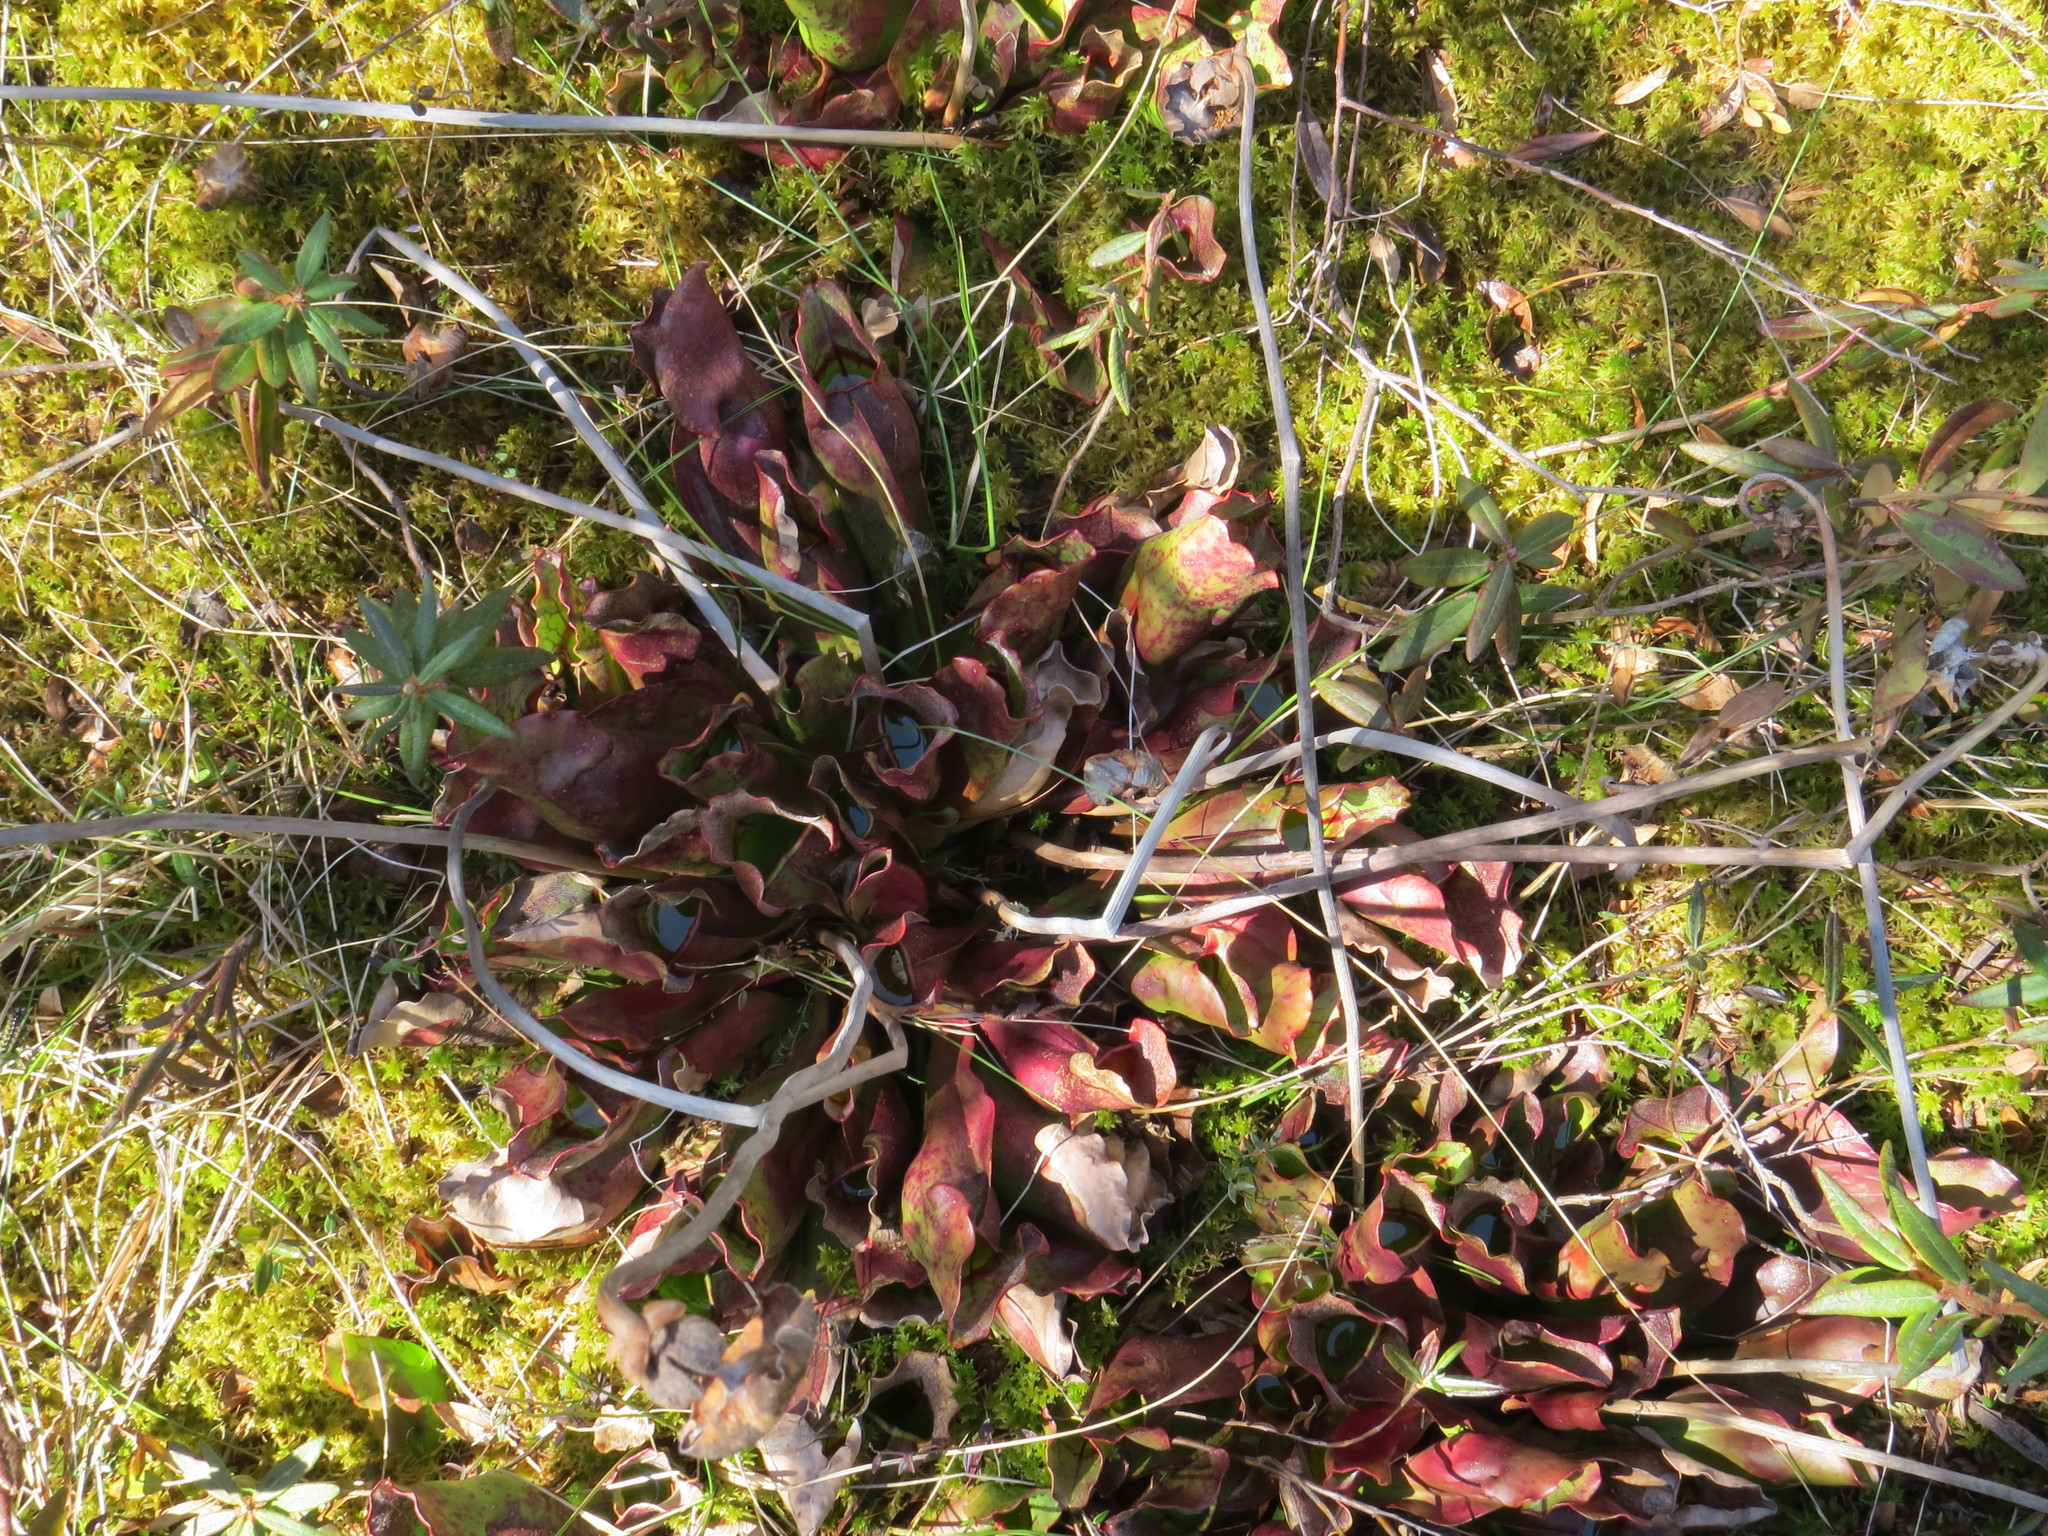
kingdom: Plantae
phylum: Tracheophyta
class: Magnoliopsida
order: Ericales
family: Sarraceniaceae
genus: Sarracenia
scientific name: Sarracenia purpurea
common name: Pitcherplant
